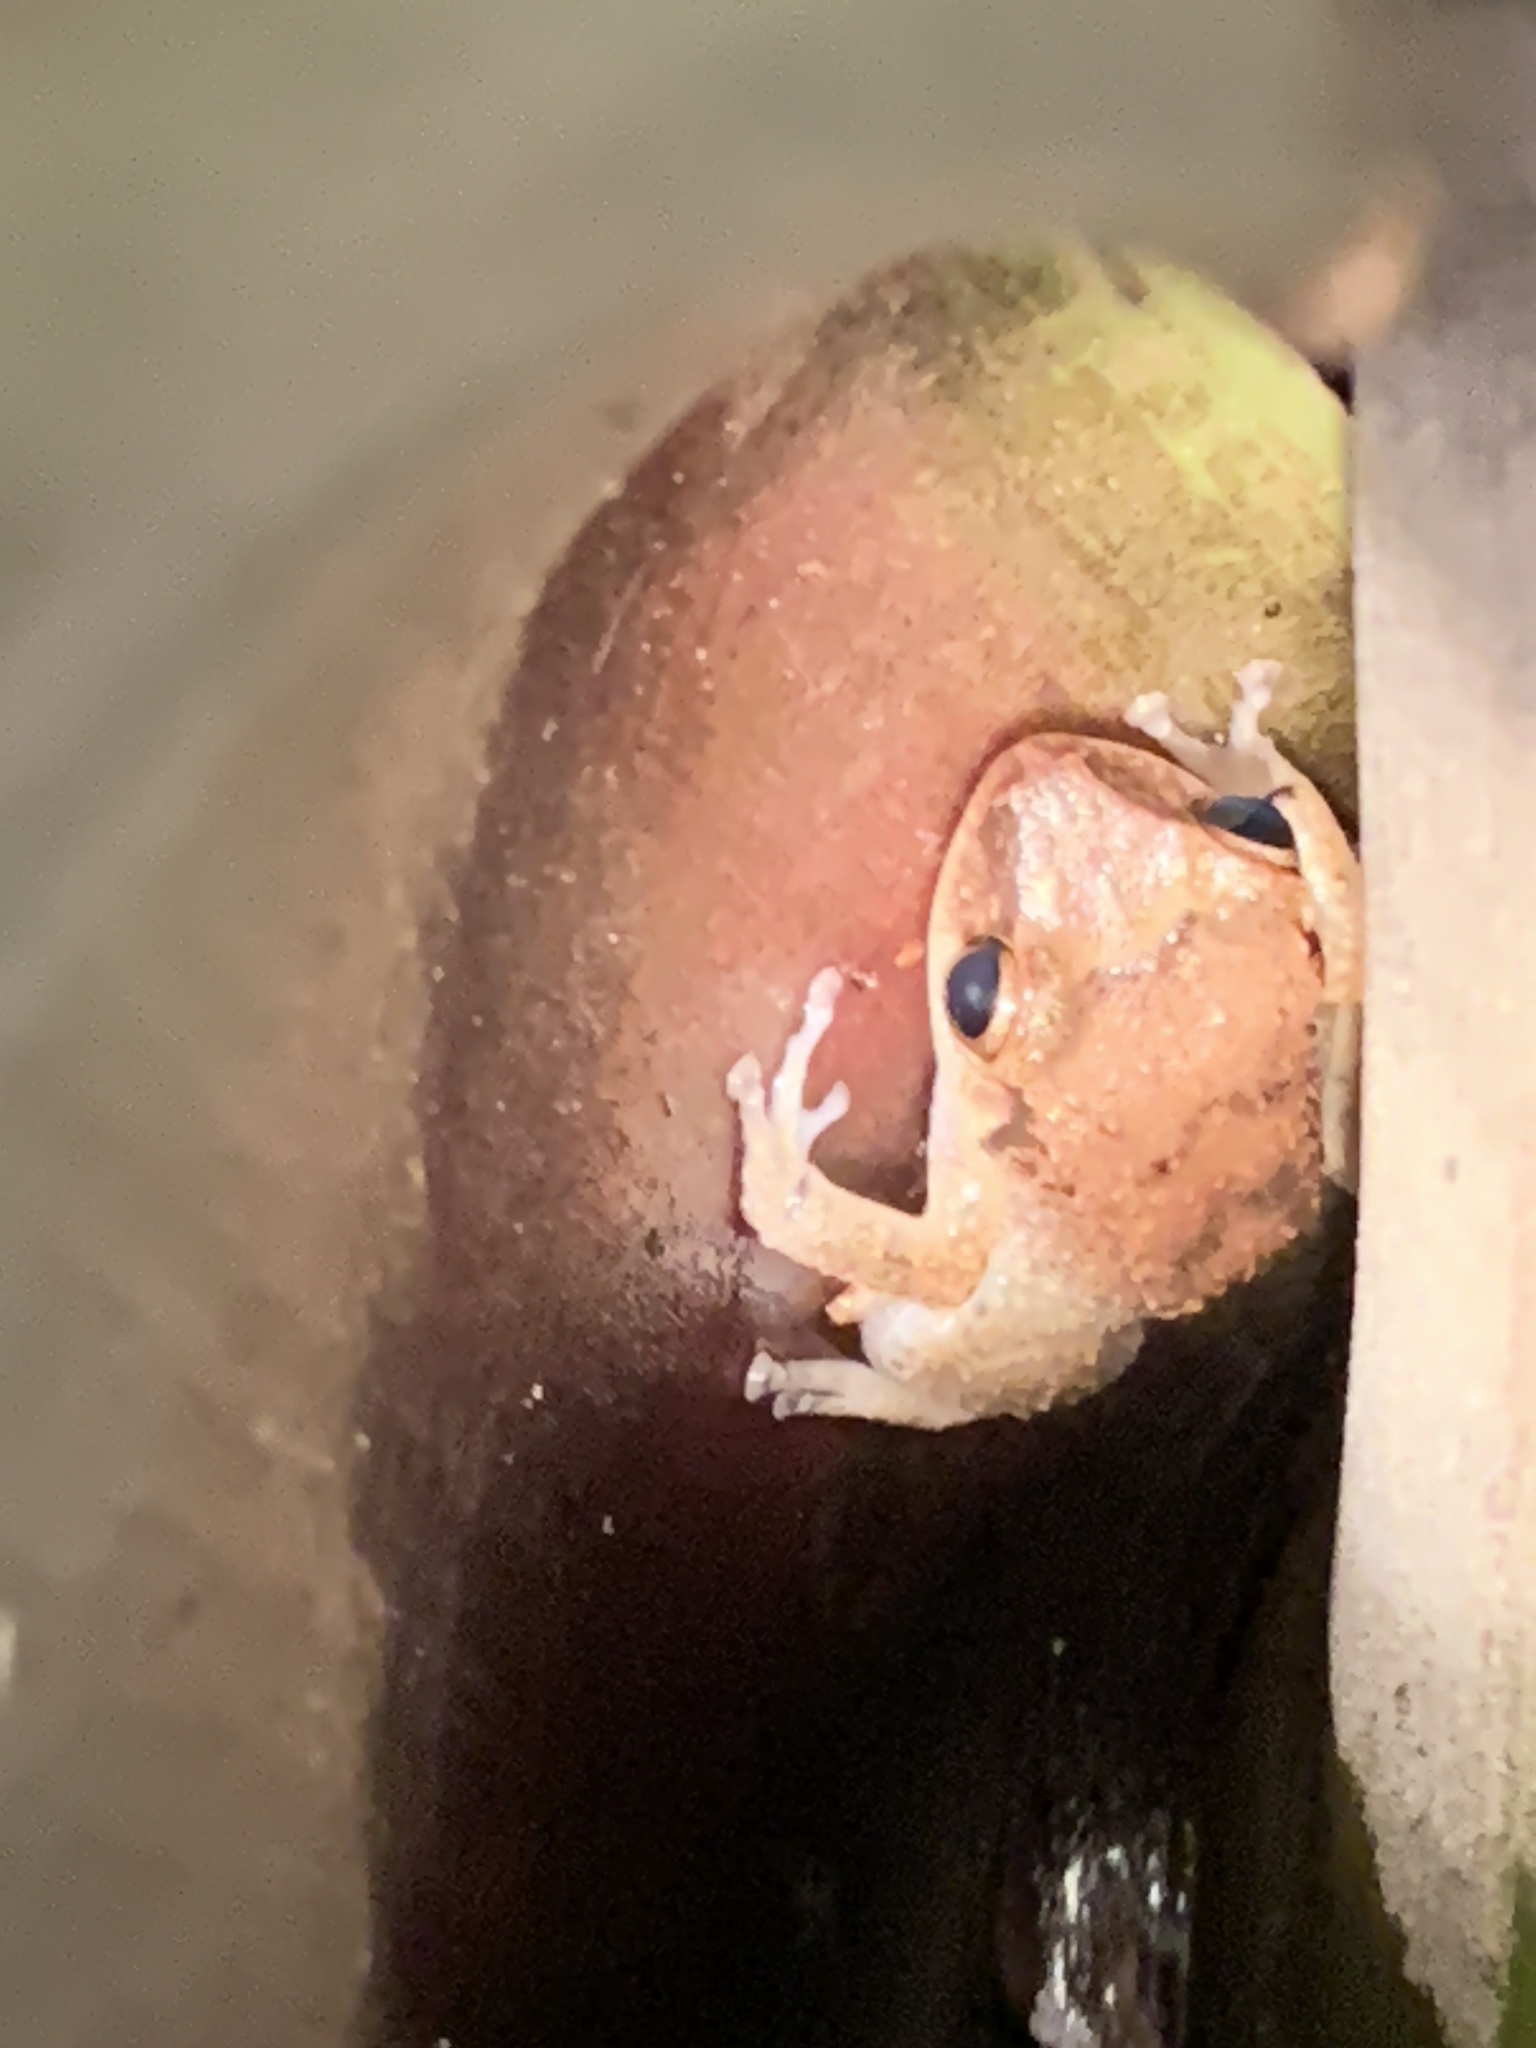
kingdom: Animalia
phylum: Chordata
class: Amphibia
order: Anura
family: Eleutherodactylidae
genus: Eleutherodactylus
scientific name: Eleutherodactylus johnstonei
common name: Johnstone's robber frog
